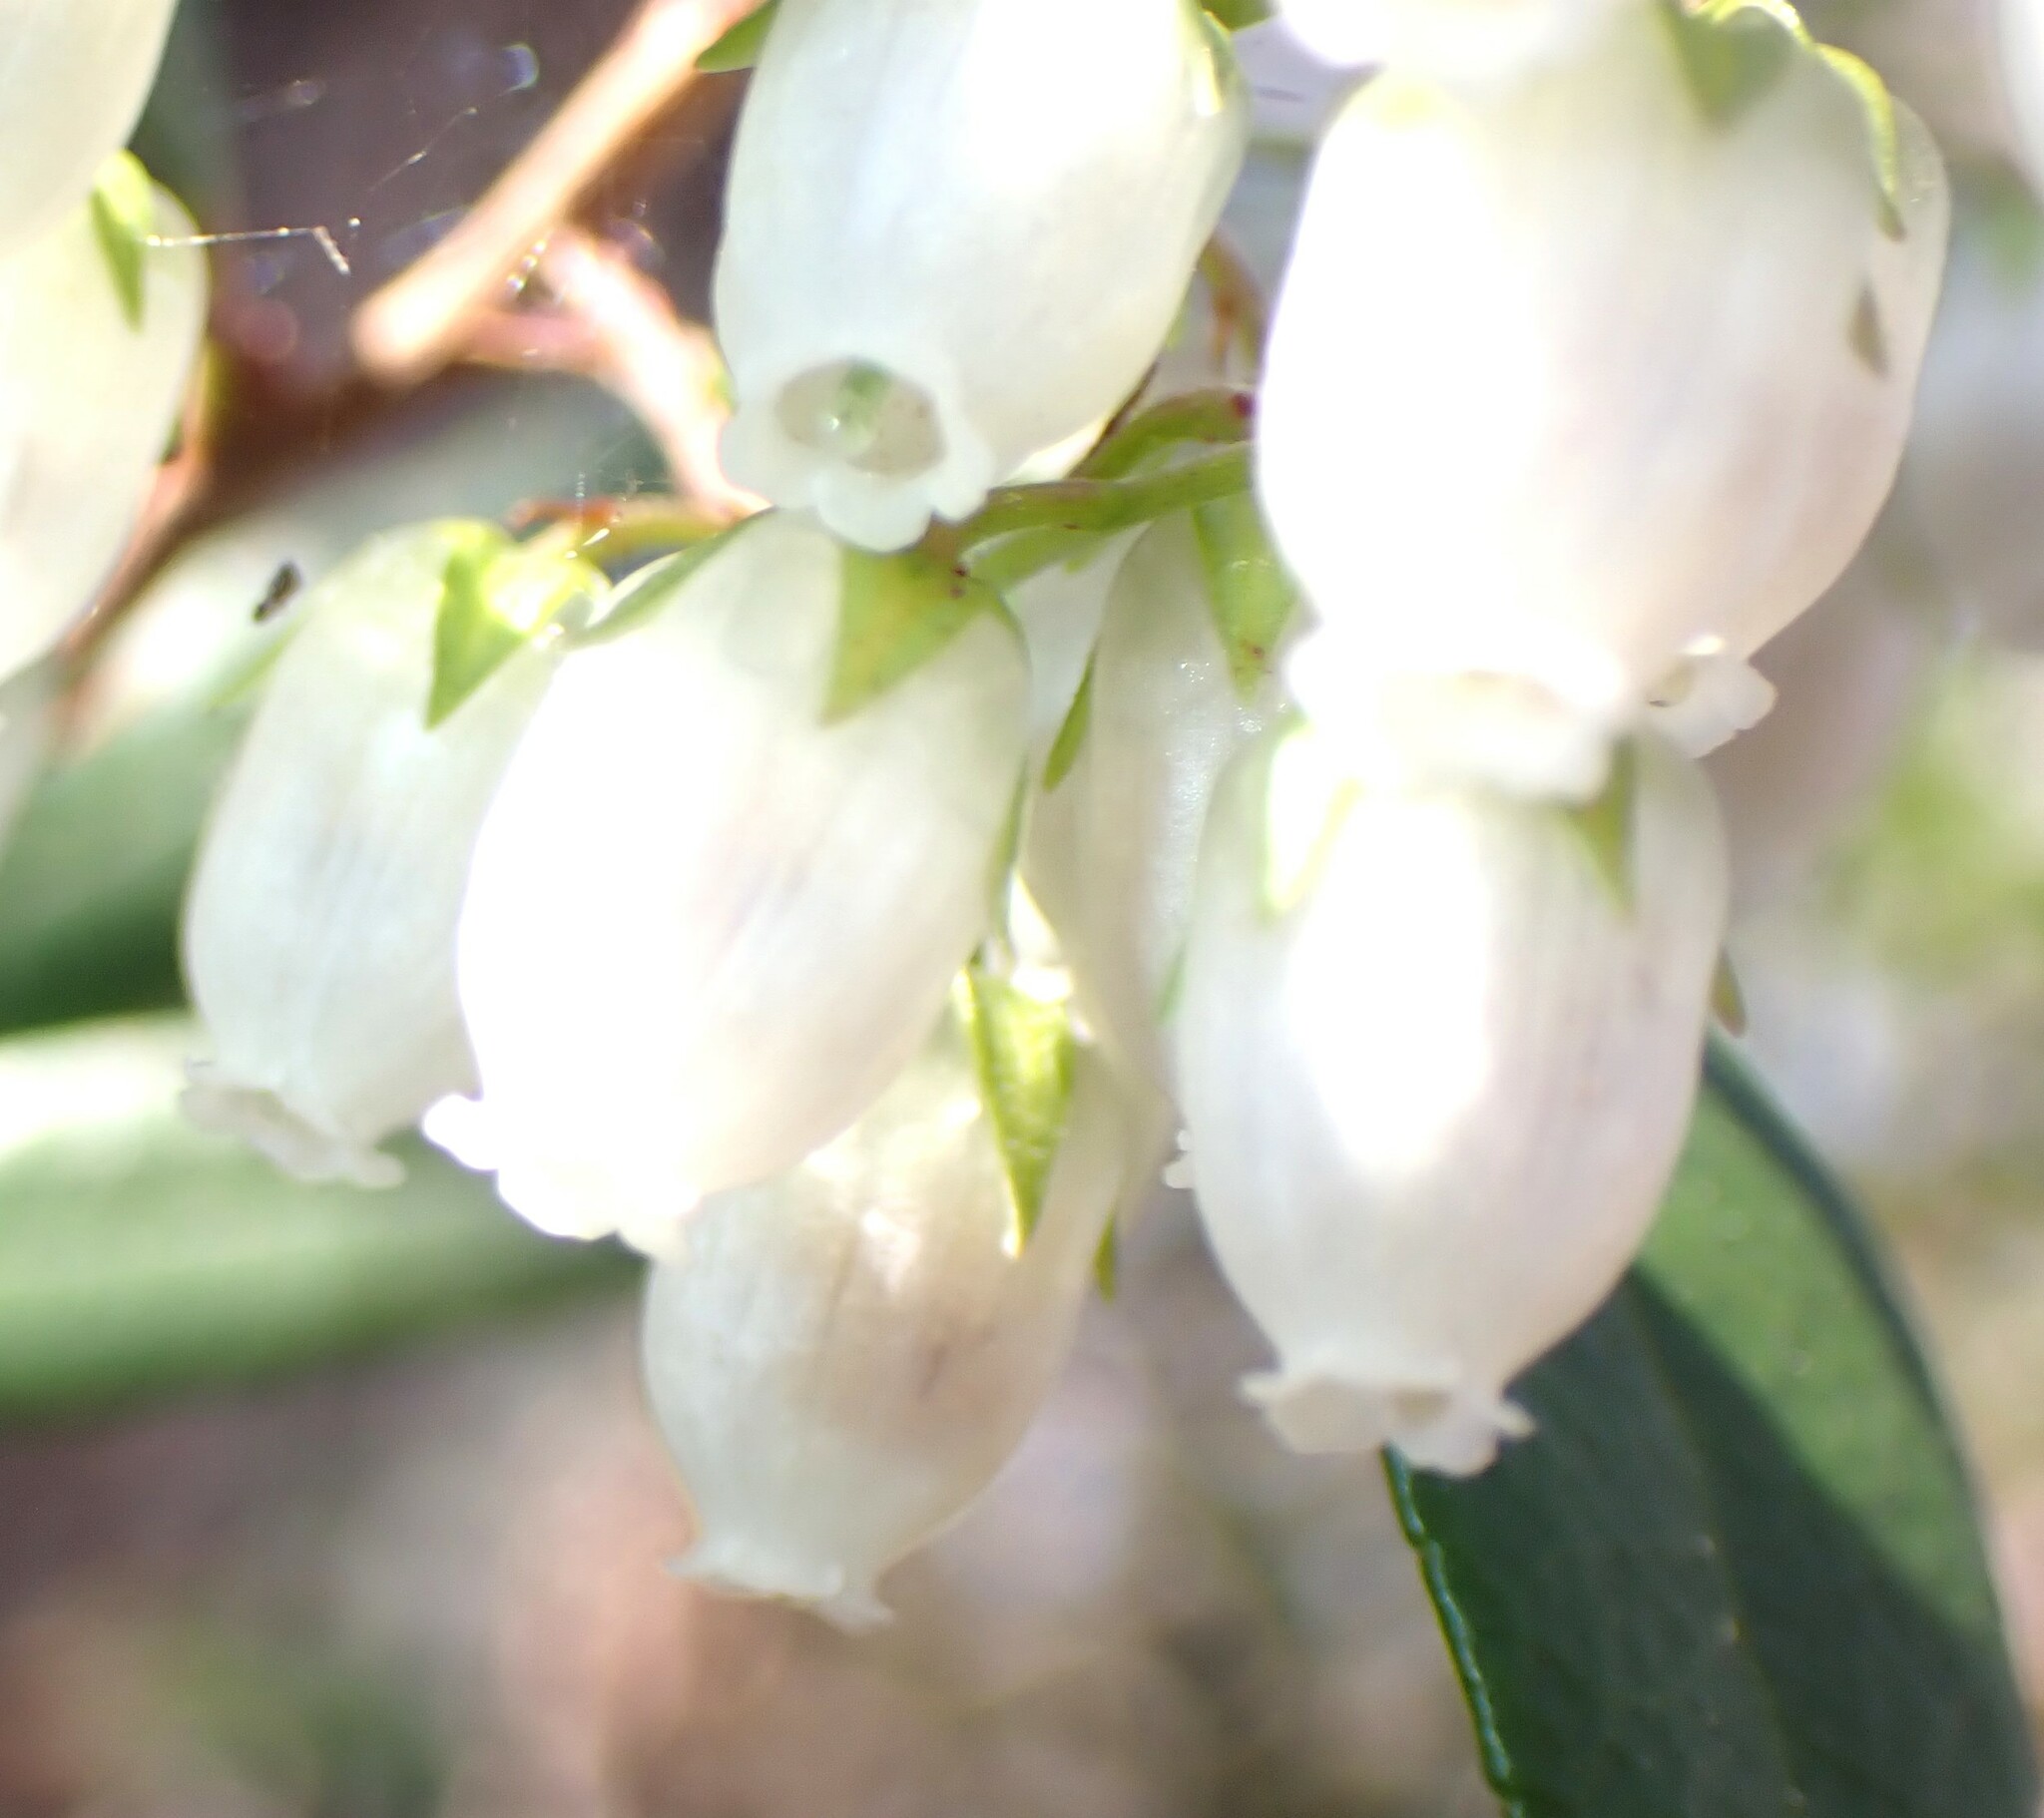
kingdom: Plantae
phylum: Tracheophyta
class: Magnoliopsida
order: Ericales
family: Ericaceae
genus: Pieris
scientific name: Pieris phillyreifolia
